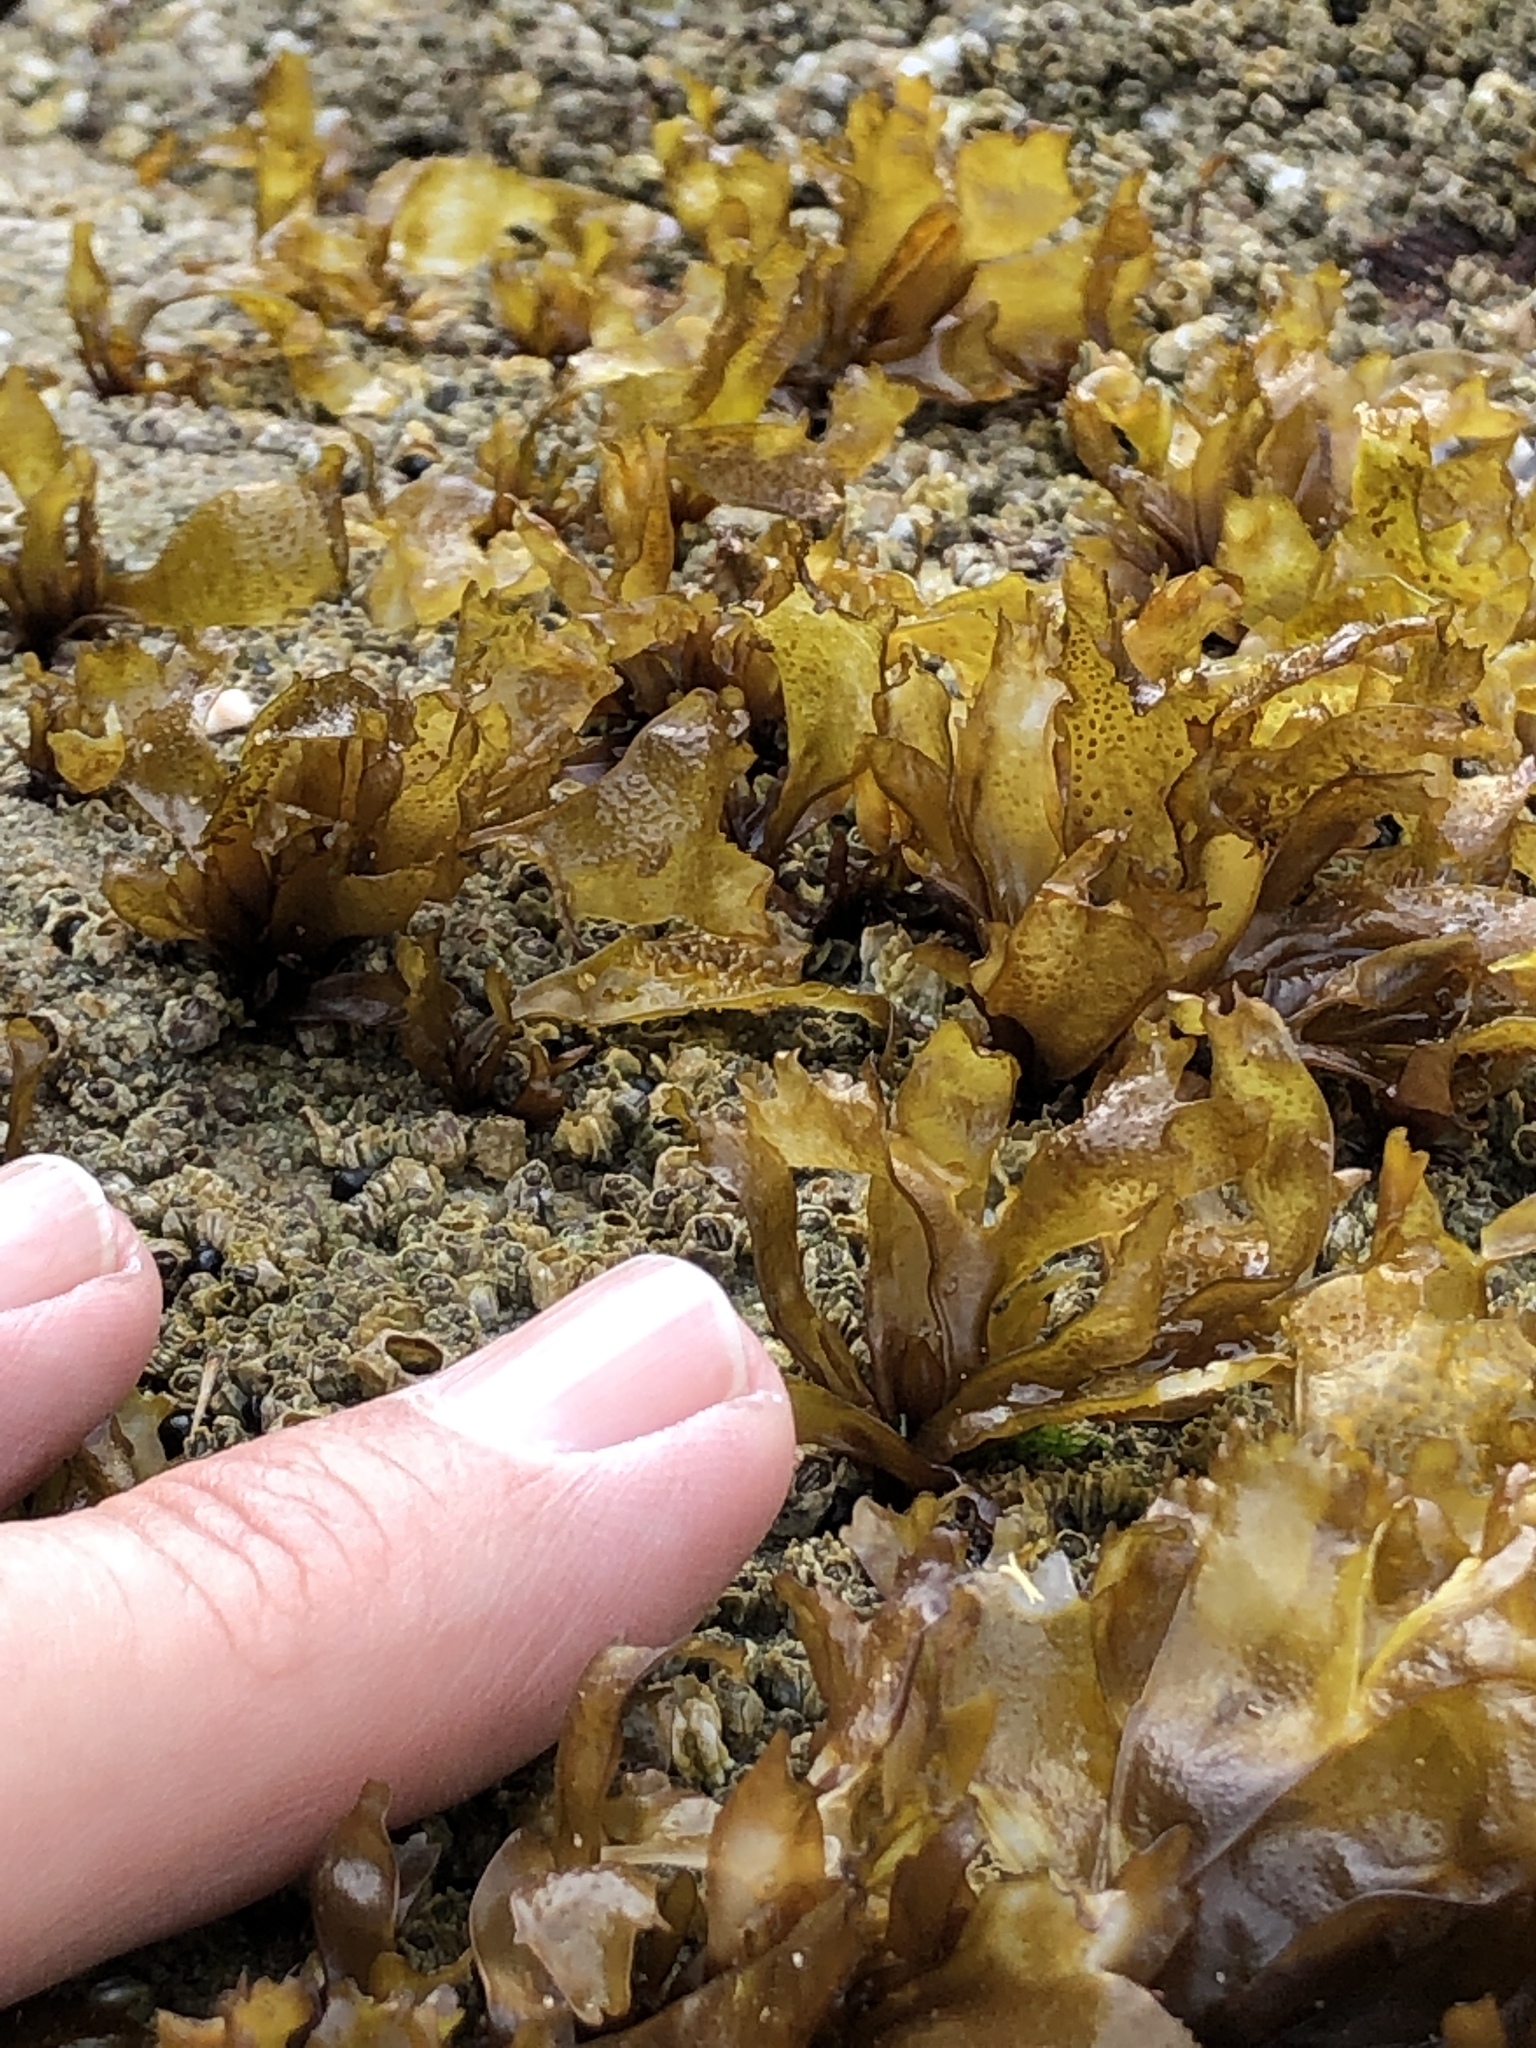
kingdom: Plantae
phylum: Rhodophyta
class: Florideophyceae
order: Gigartinales
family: Phyllophoraceae
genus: Mastocarpus
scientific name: Mastocarpus papillatus
